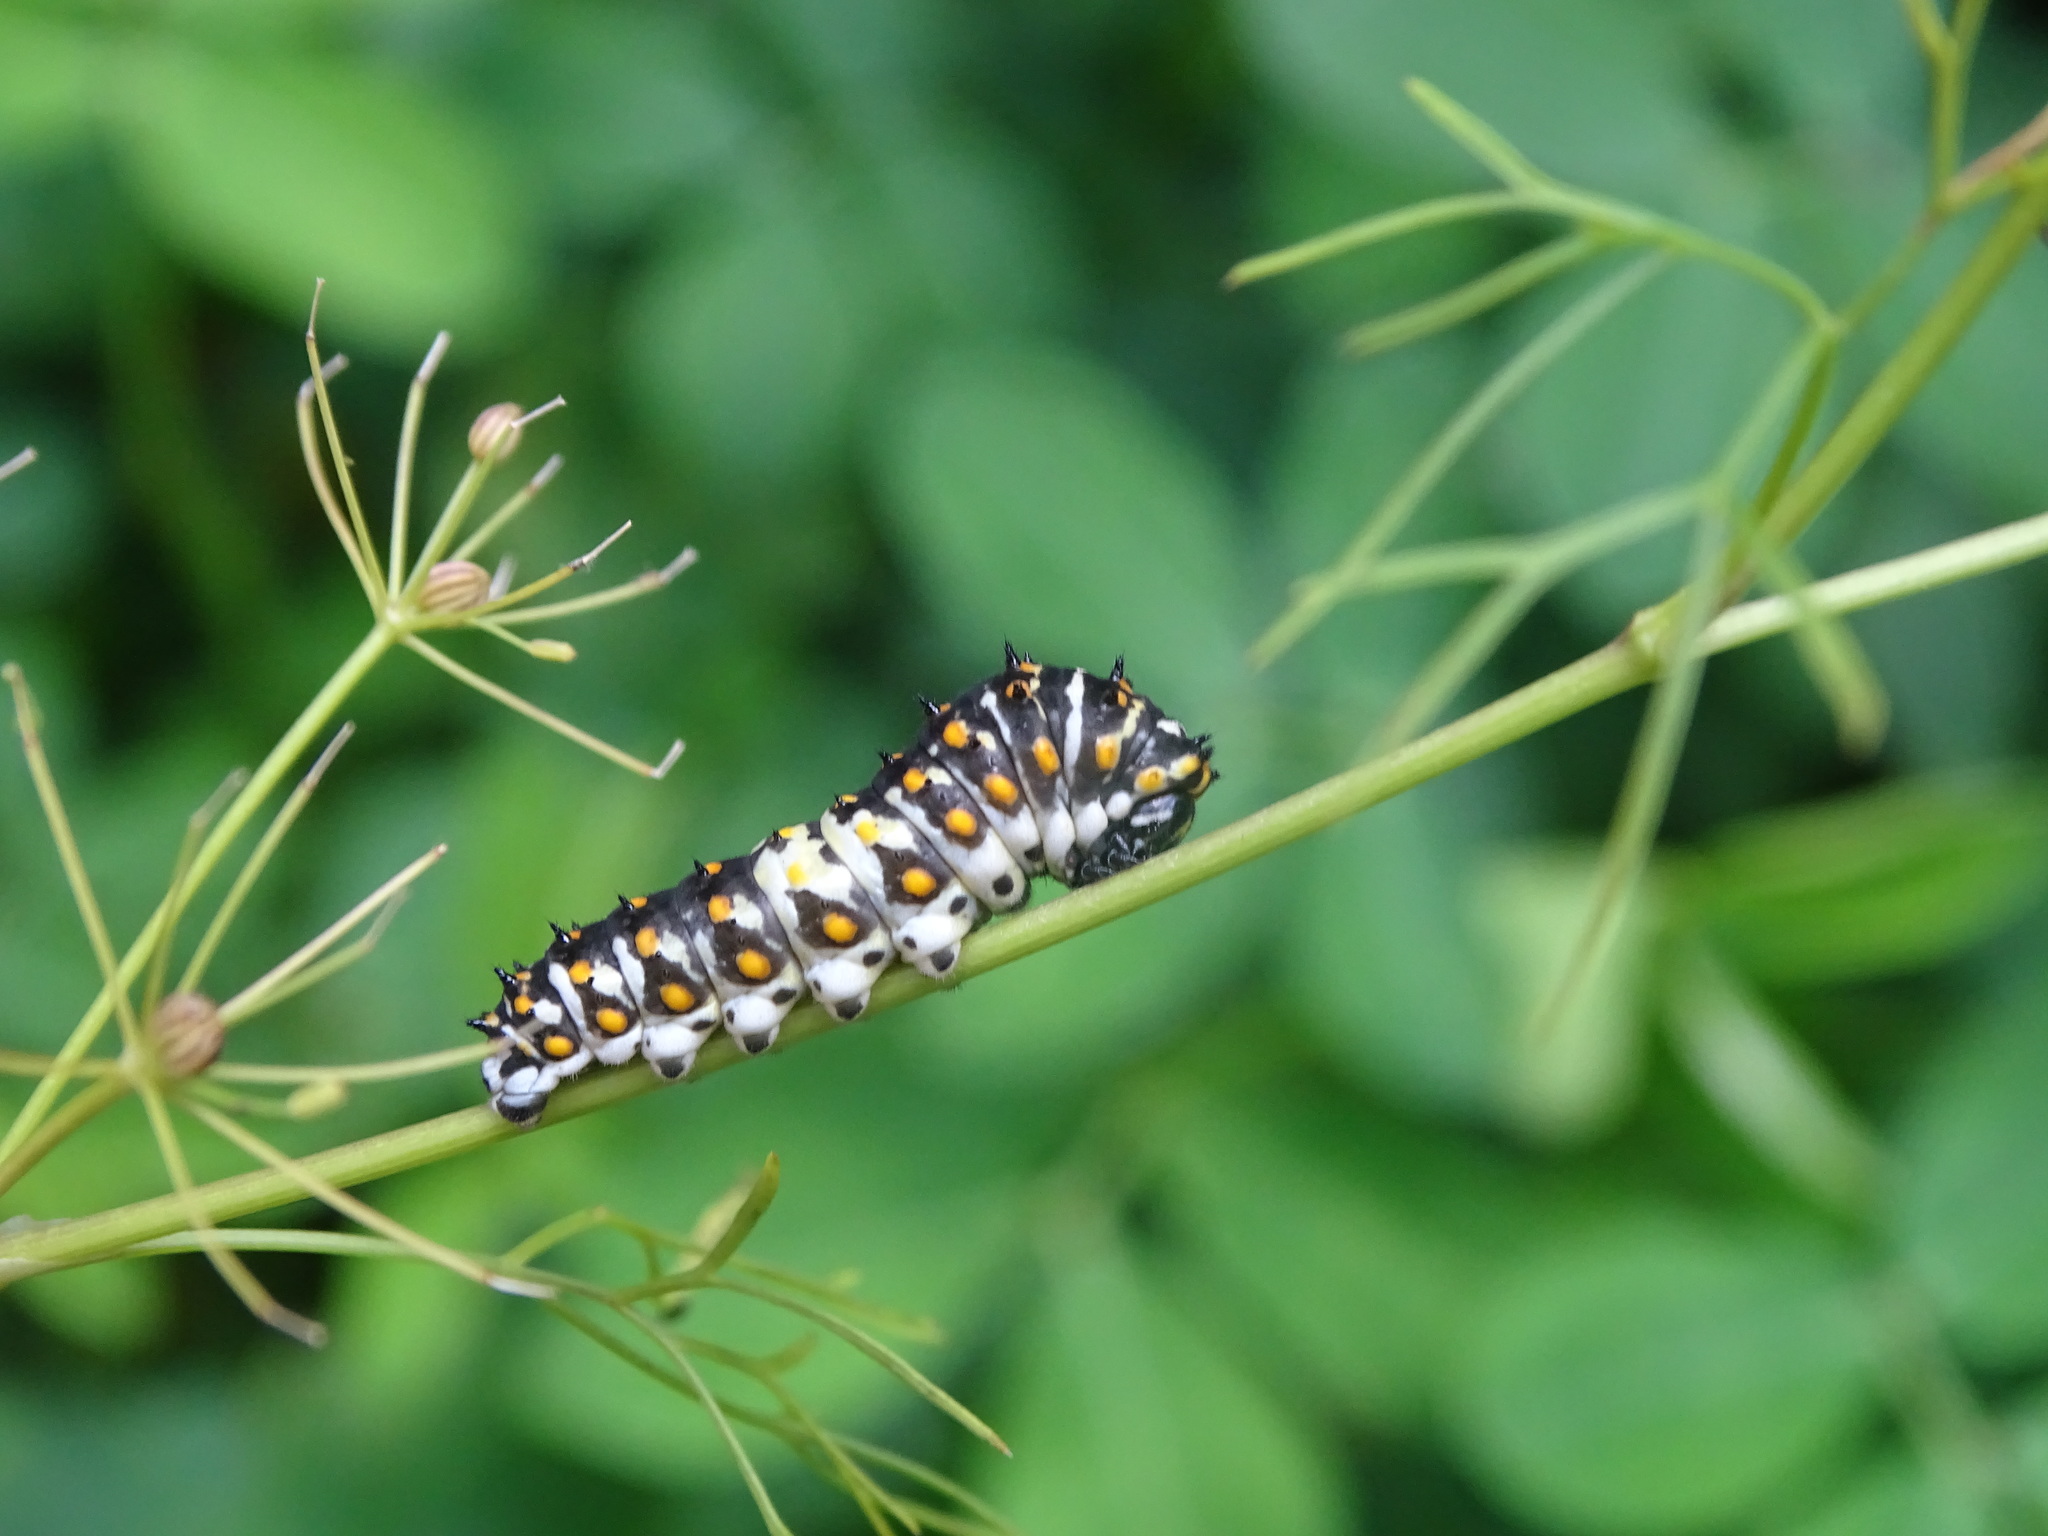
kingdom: Animalia
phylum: Arthropoda
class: Insecta
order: Lepidoptera
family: Papilionidae
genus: Papilio
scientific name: Papilio polyxenes
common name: Black swallowtail
